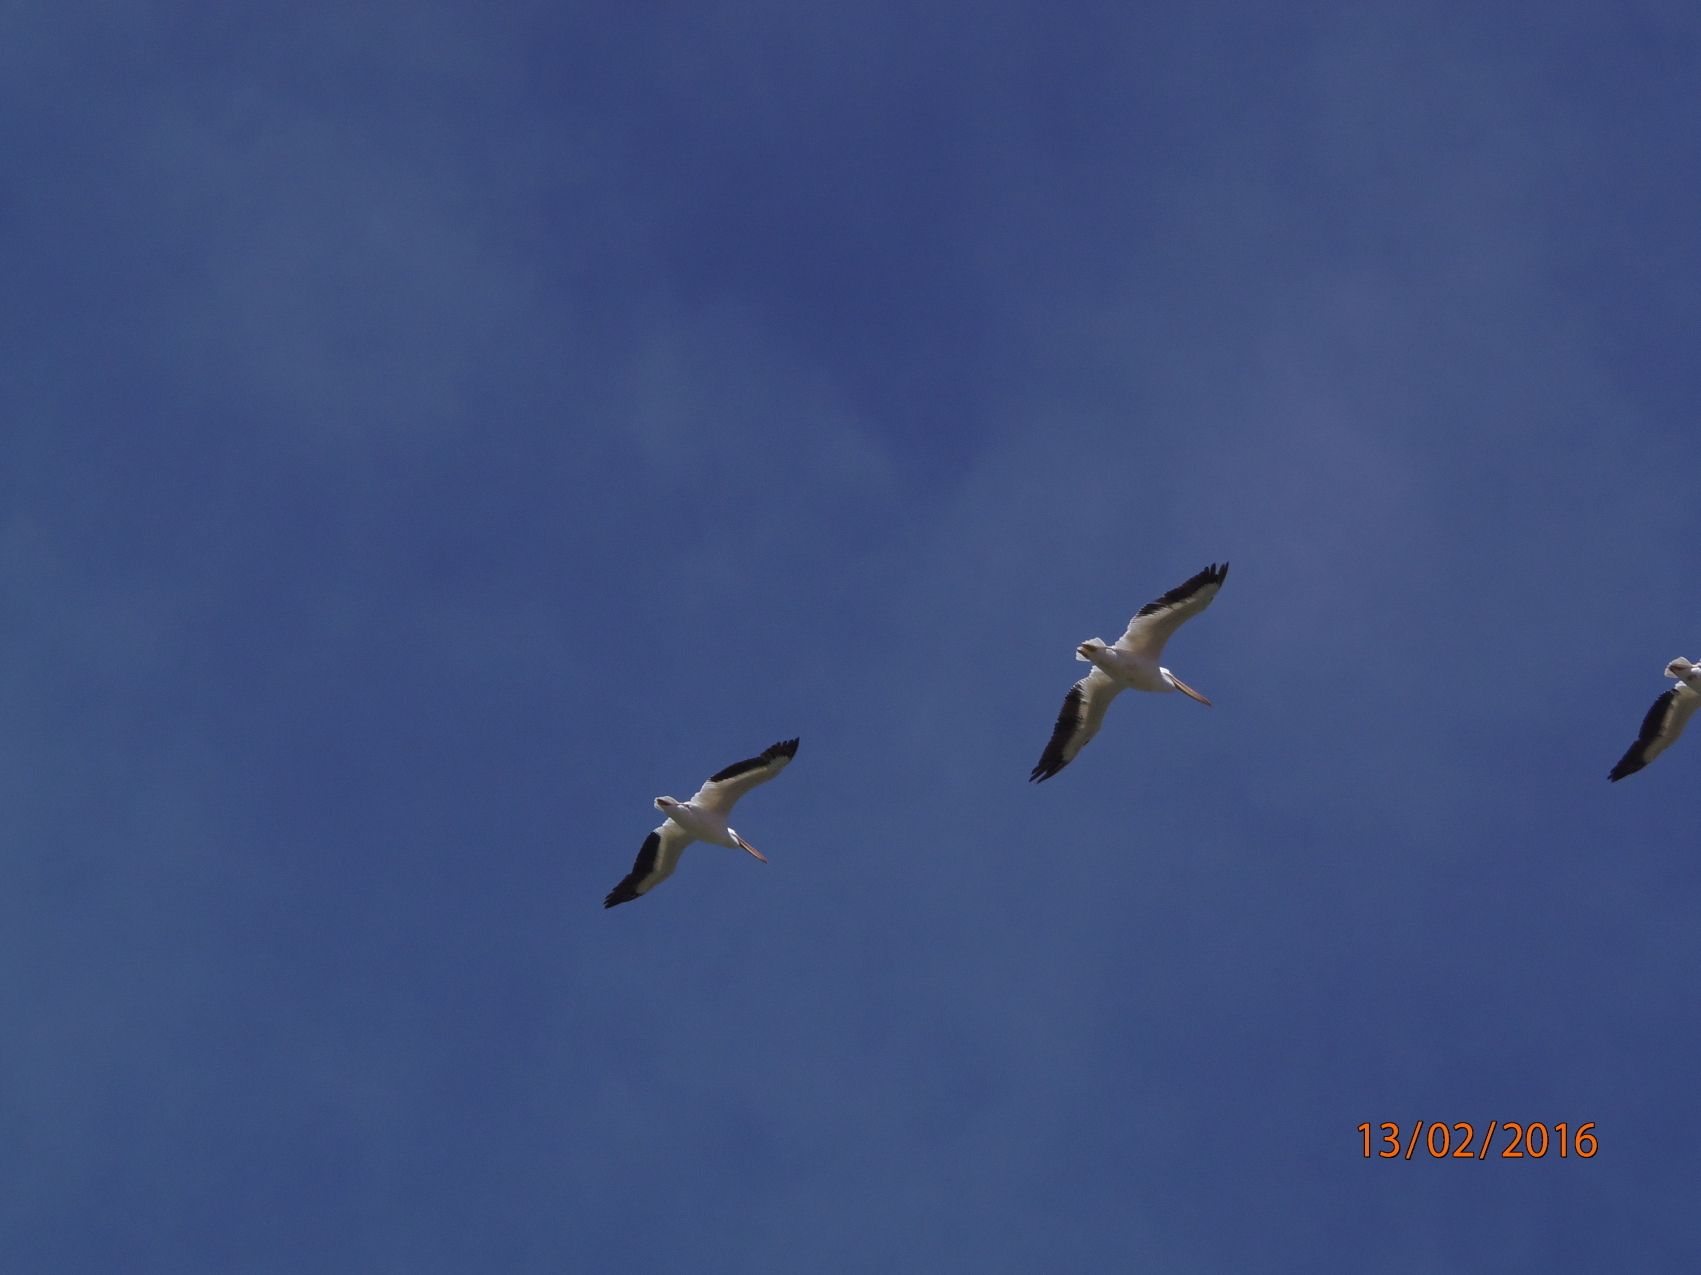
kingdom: Animalia
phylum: Chordata
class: Aves
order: Pelecaniformes
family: Pelecanidae
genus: Pelecanus
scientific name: Pelecanus erythrorhynchos
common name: American white pelican
